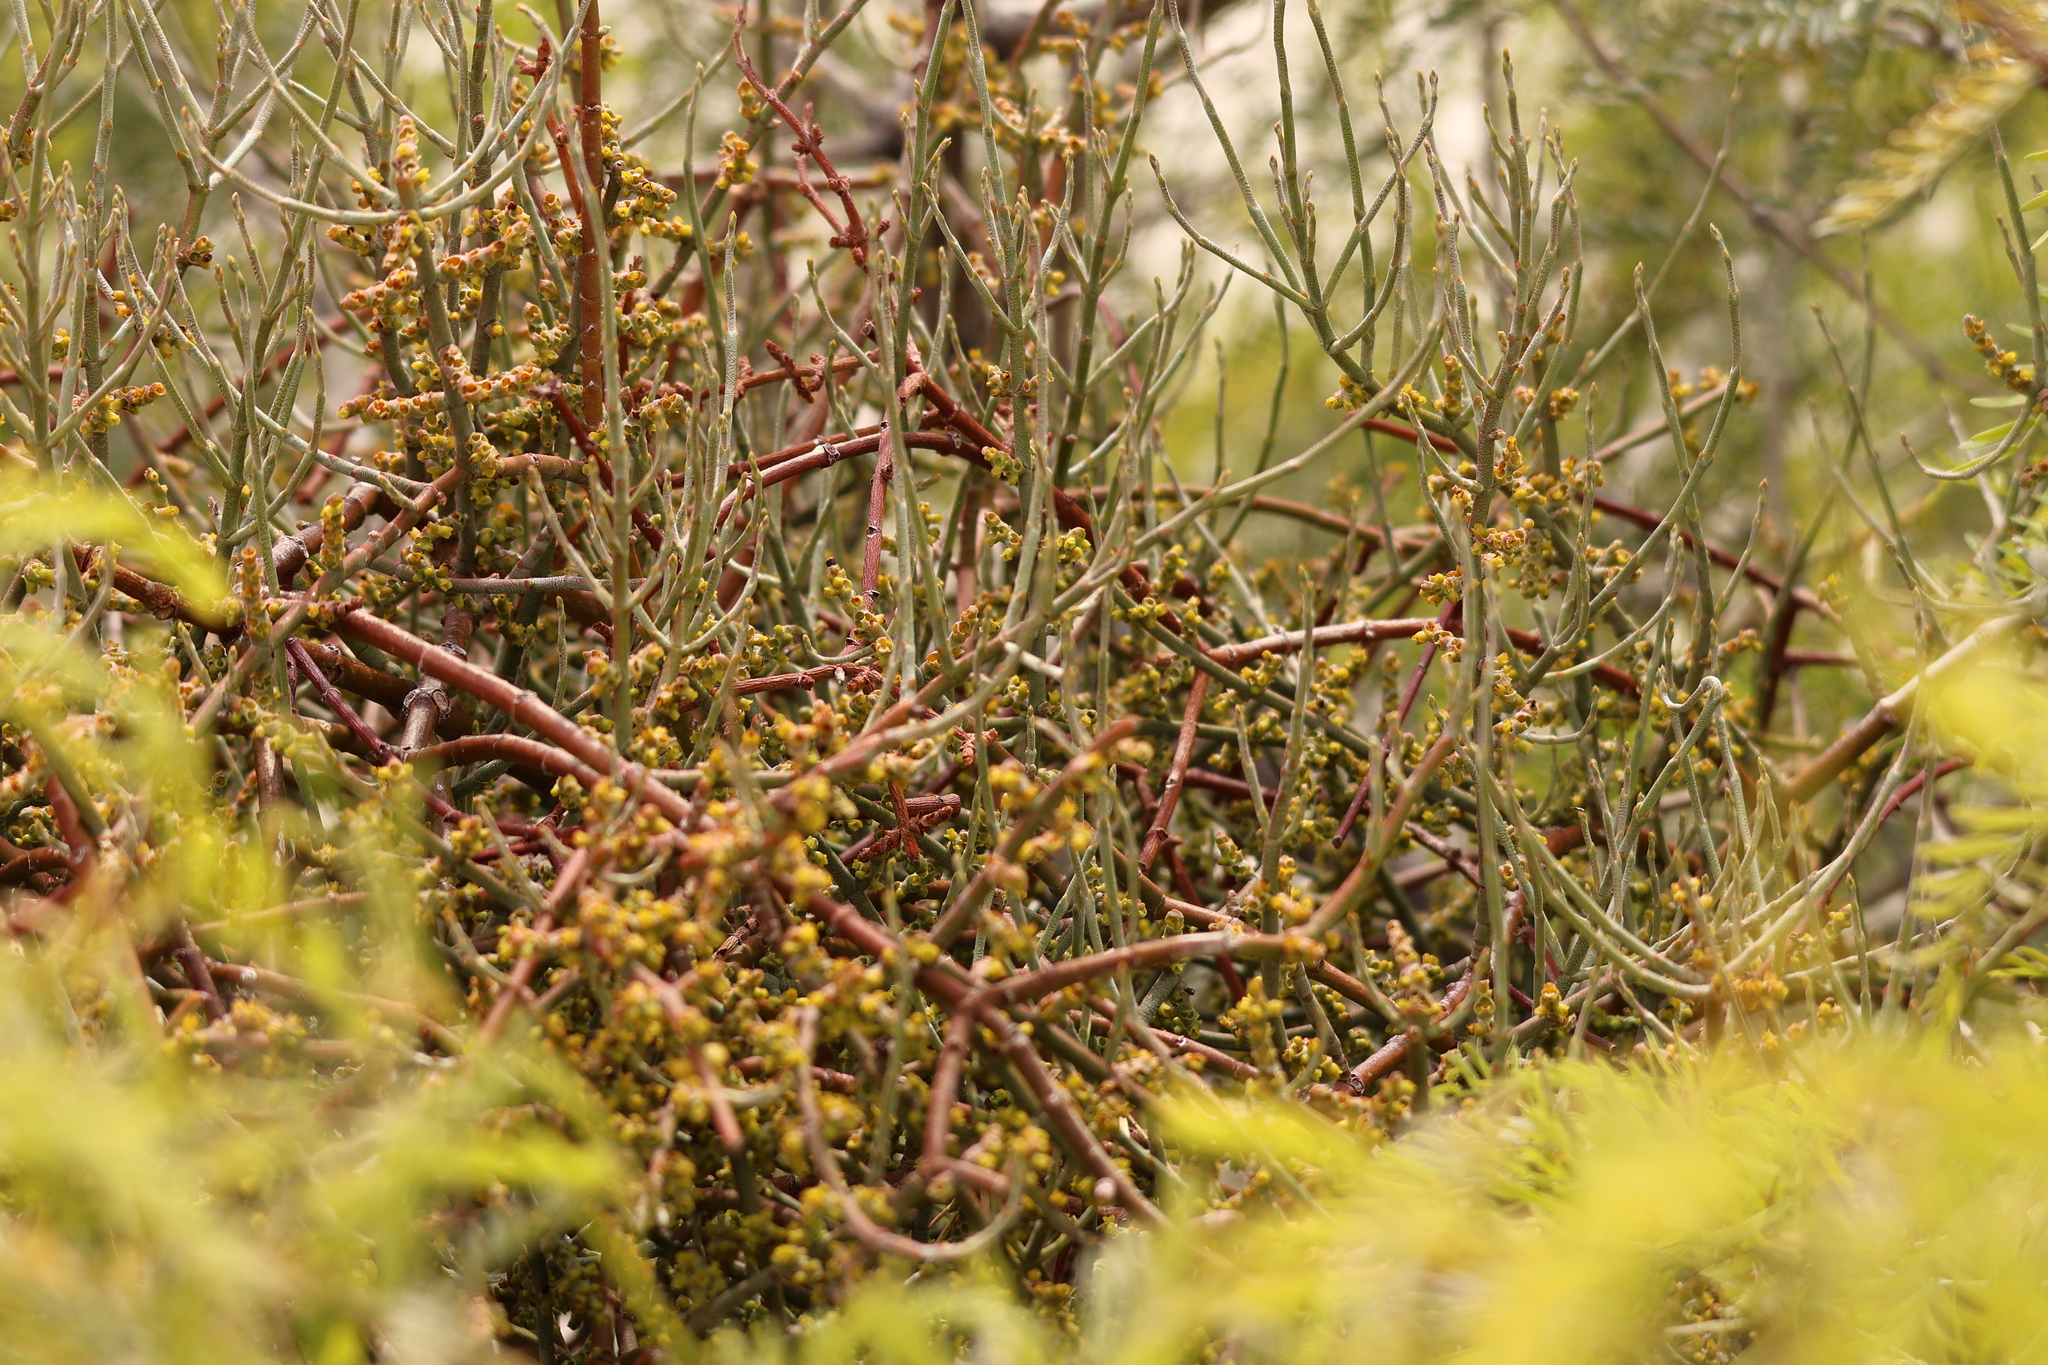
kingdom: Plantae
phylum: Tracheophyta
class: Magnoliopsida
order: Santalales
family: Viscaceae
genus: Phoradendron
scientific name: Phoradendron californicum
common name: Acacia mistletoe
